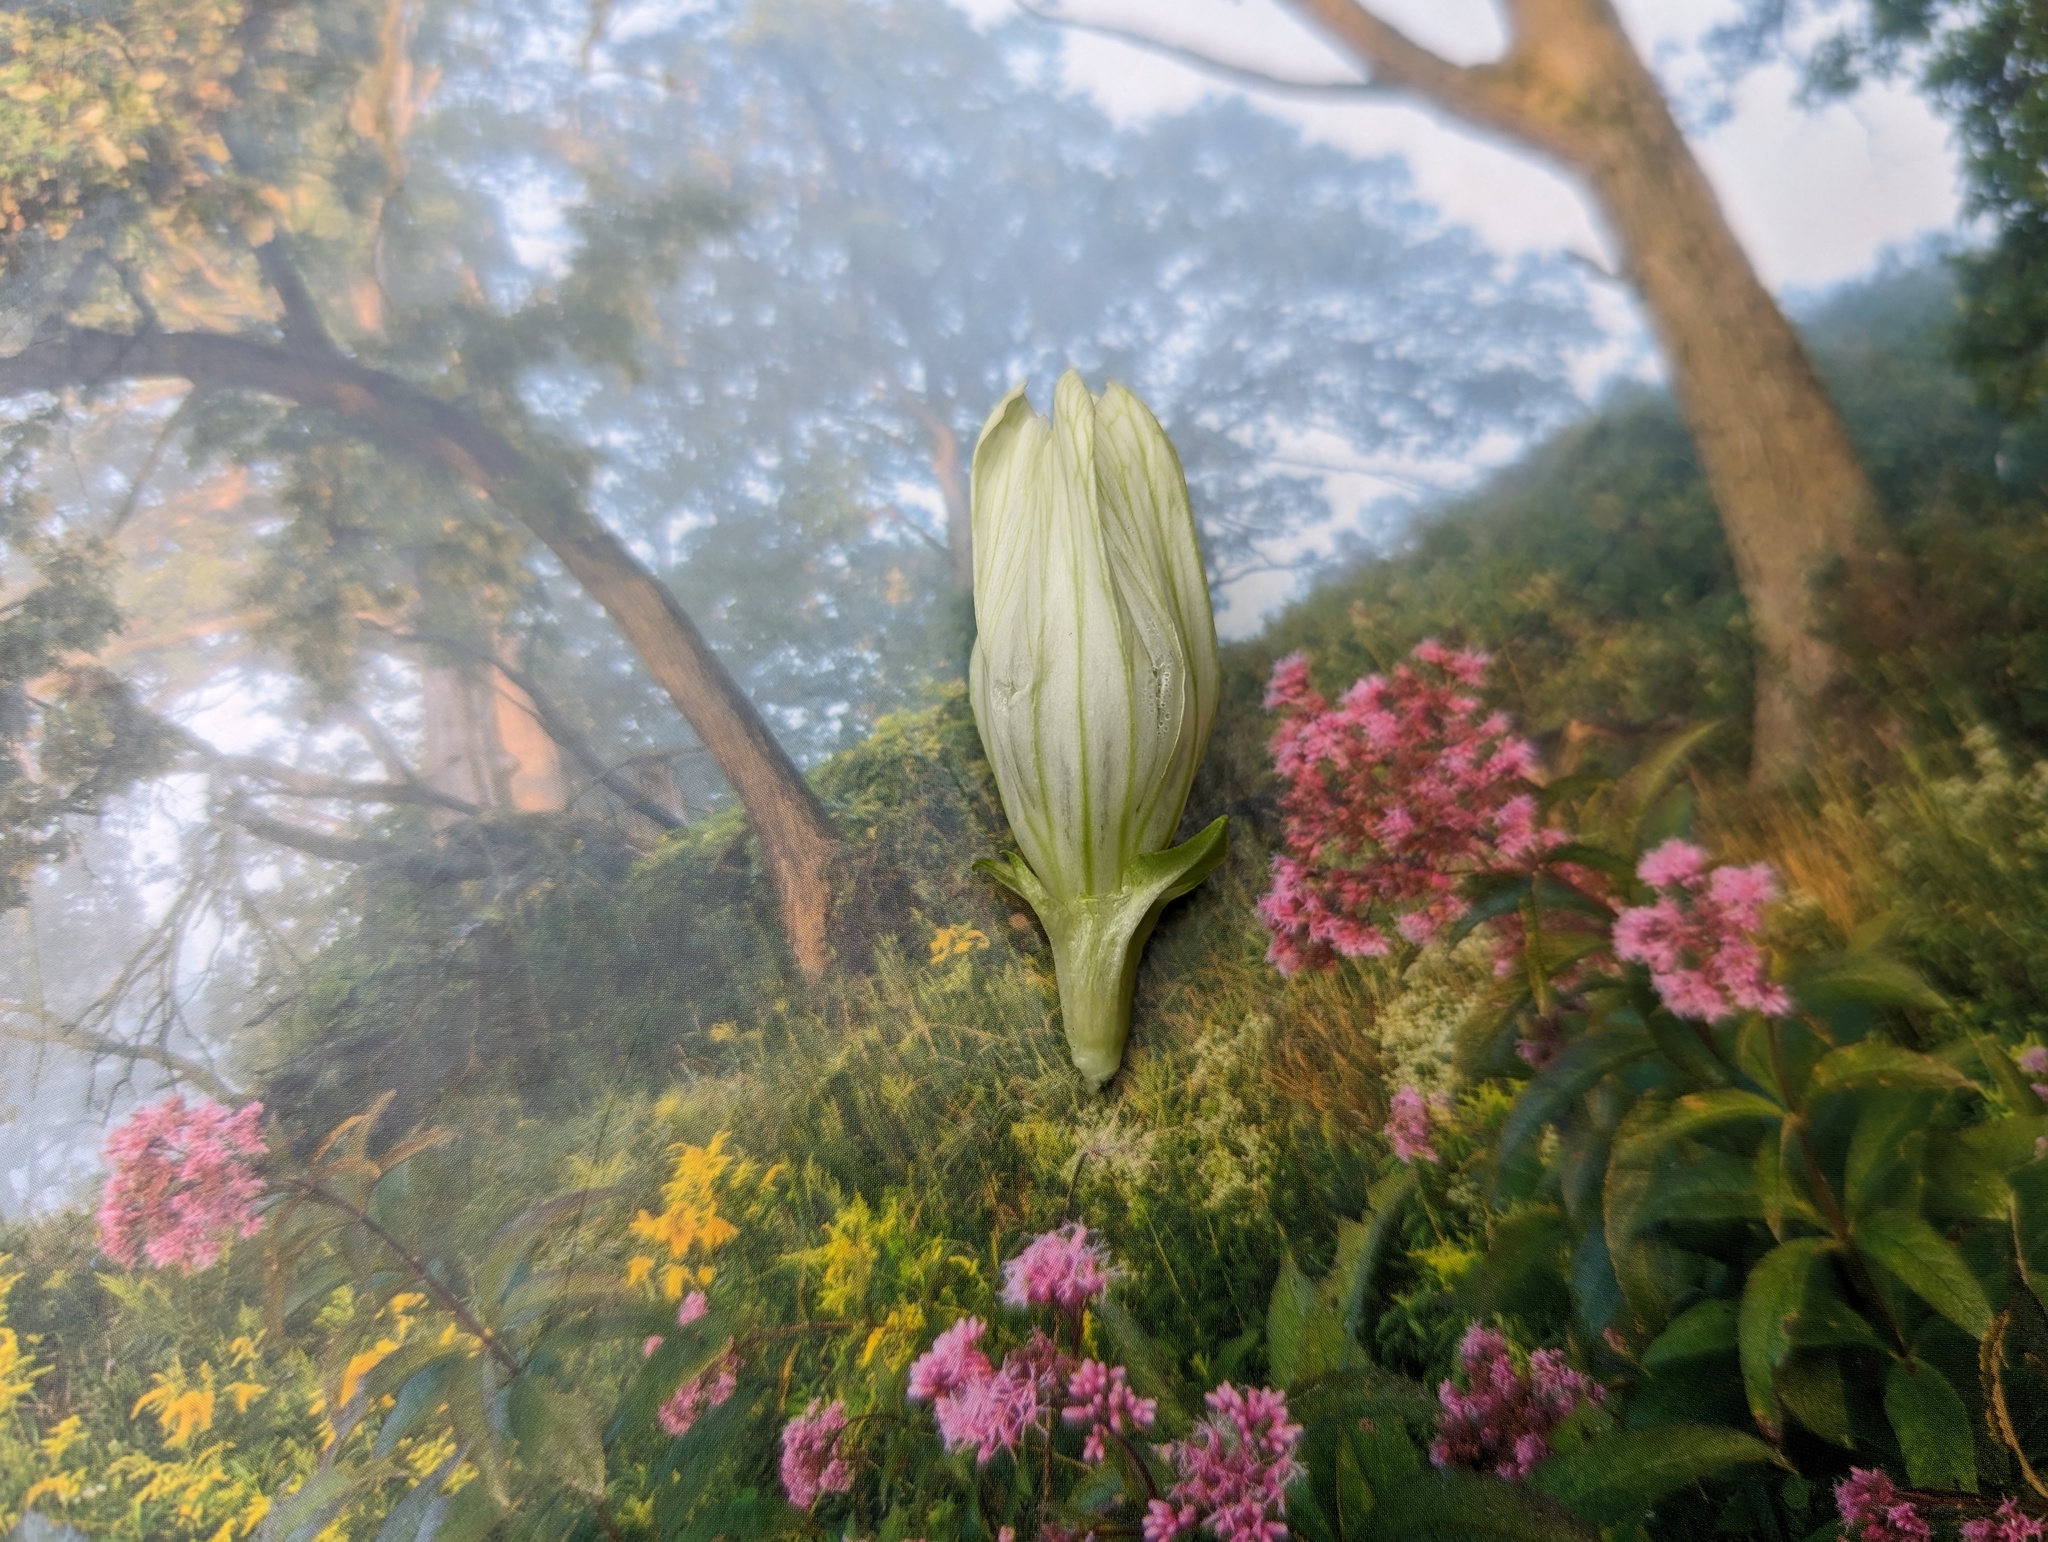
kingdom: Plantae
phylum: Tracheophyta
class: Magnoliopsida
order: Gentianales
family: Gentianaceae
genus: Gentiana
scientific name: Gentiana alba
